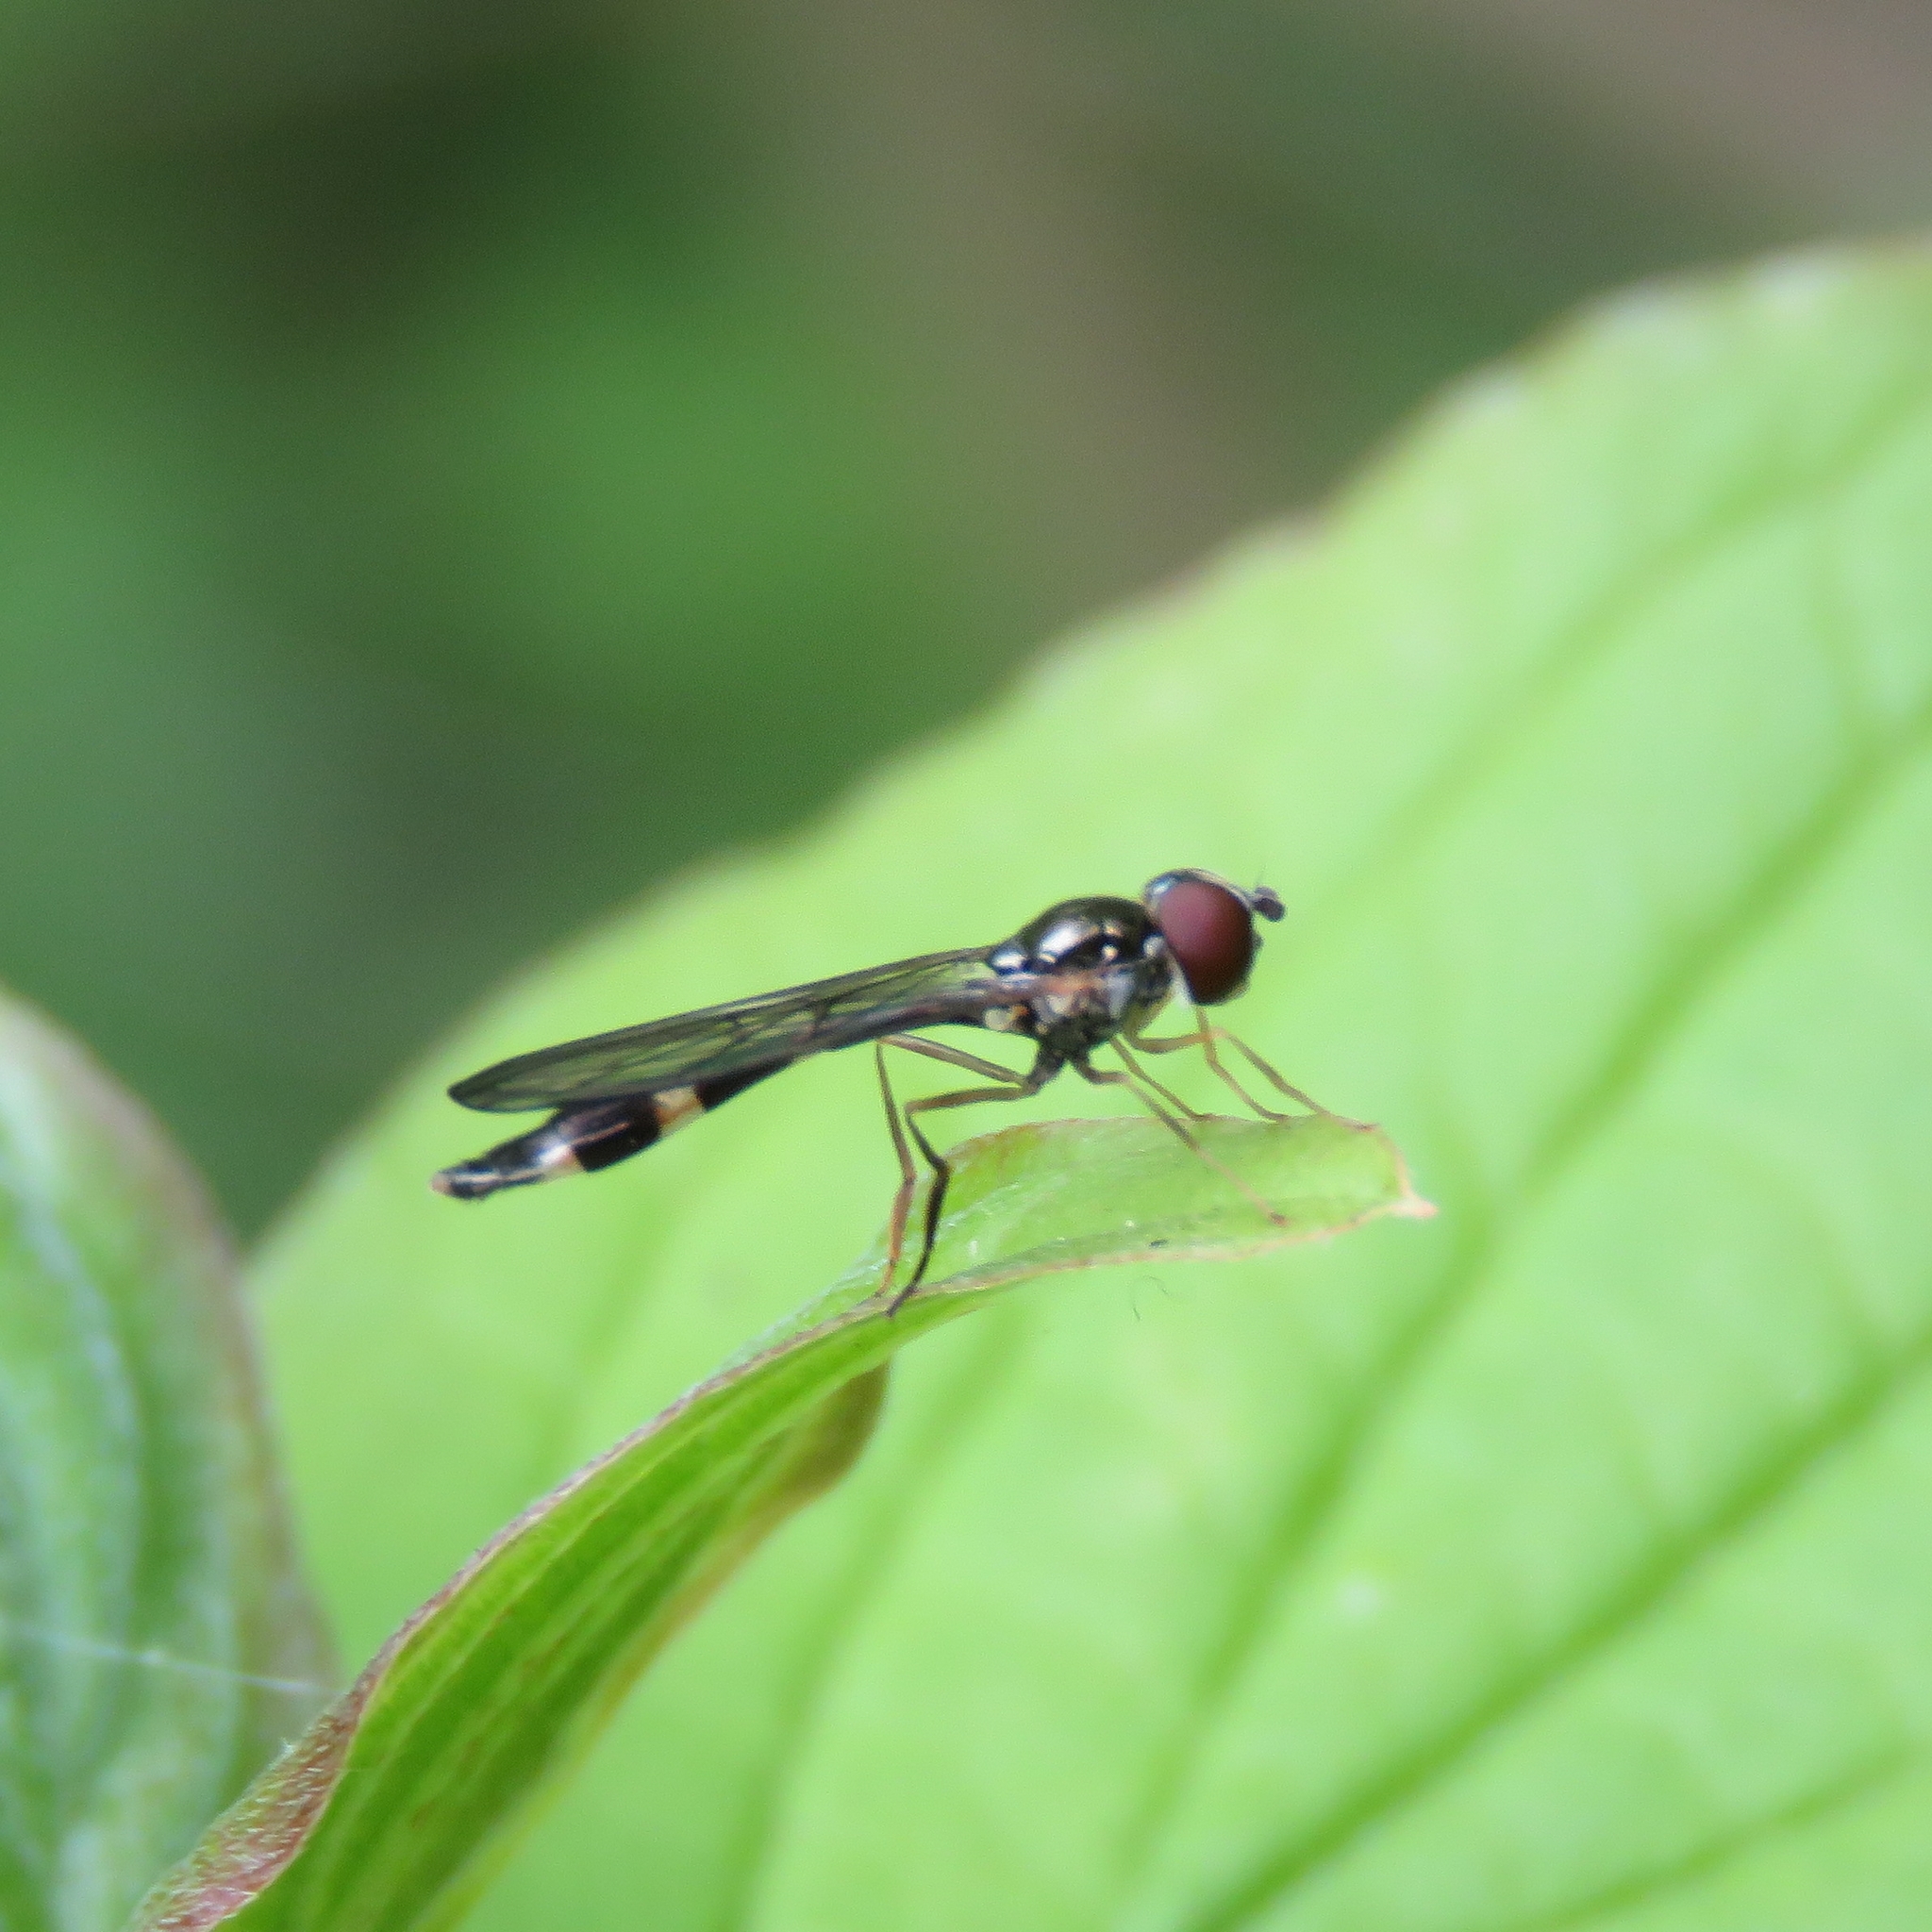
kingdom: Animalia
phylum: Arthropoda
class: Insecta
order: Diptera
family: Syrphidae
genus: Baccha
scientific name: Baccha elongata
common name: Common dainty
